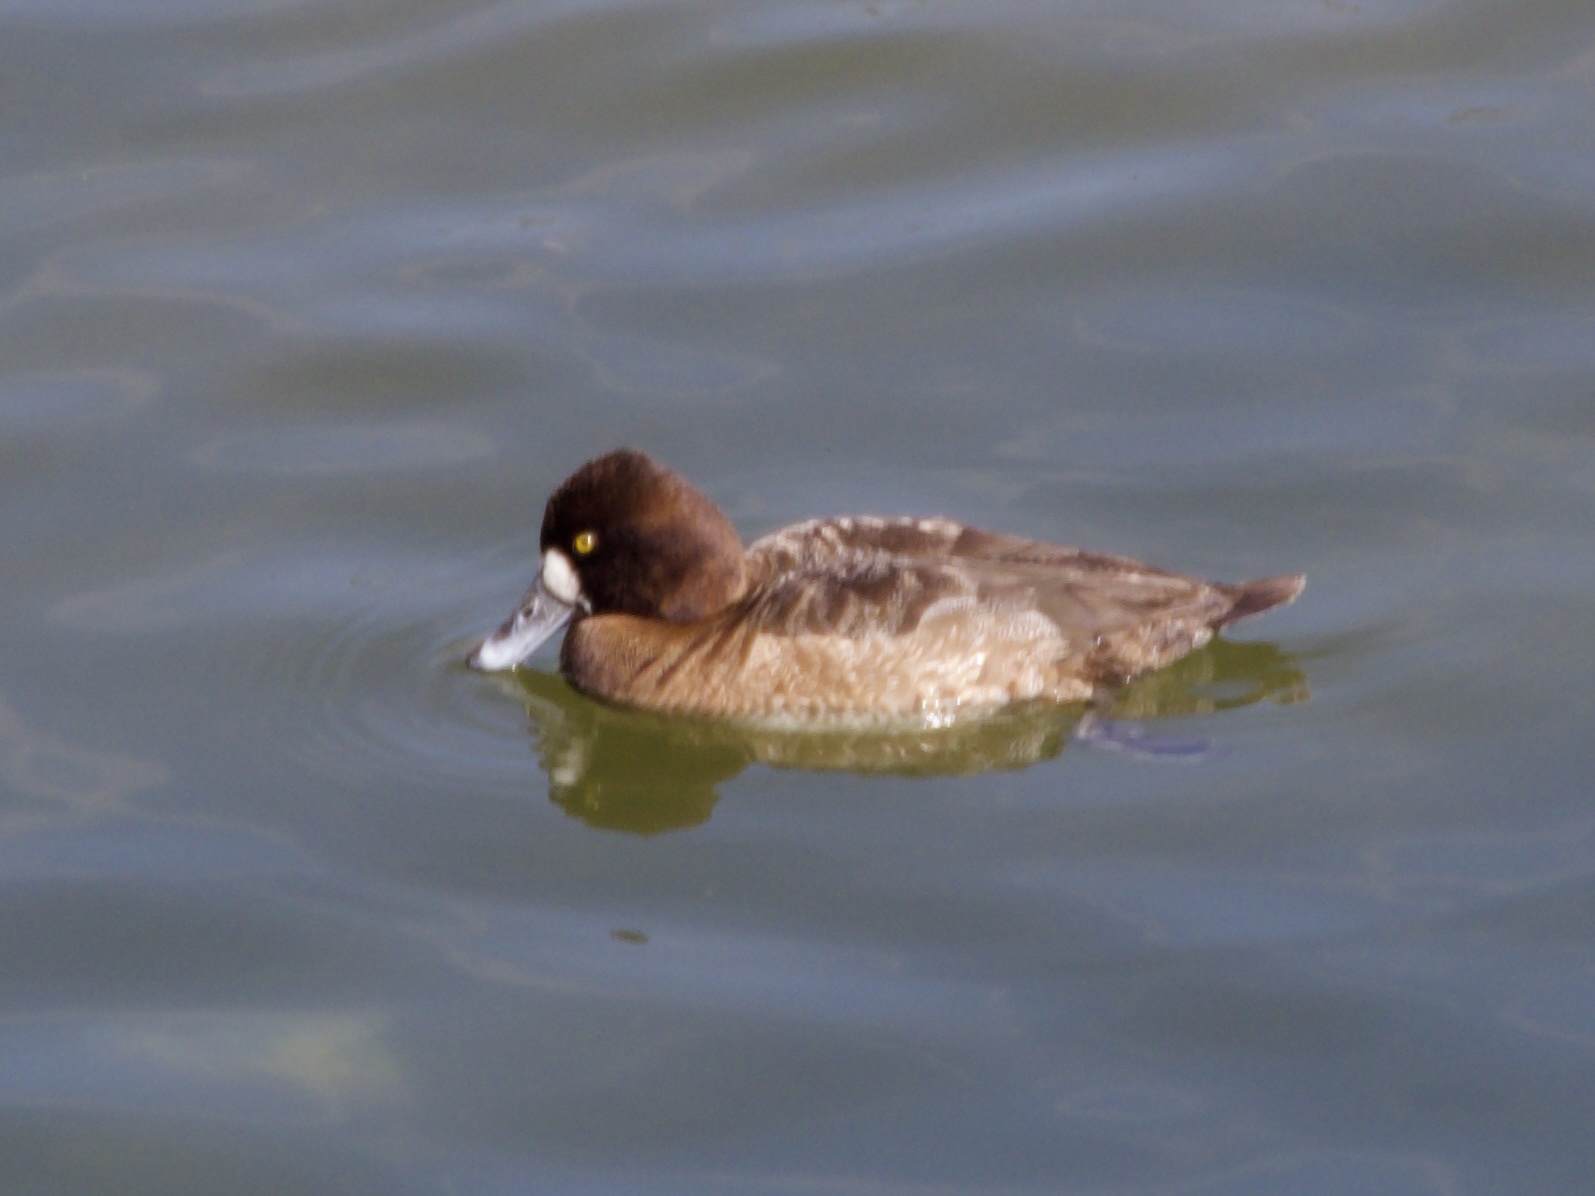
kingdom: Animalia
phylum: Chordata
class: Aves
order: Anseriformes
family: Anatidae
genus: Aythya
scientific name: Aythya affinis
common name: Lesser scaup
